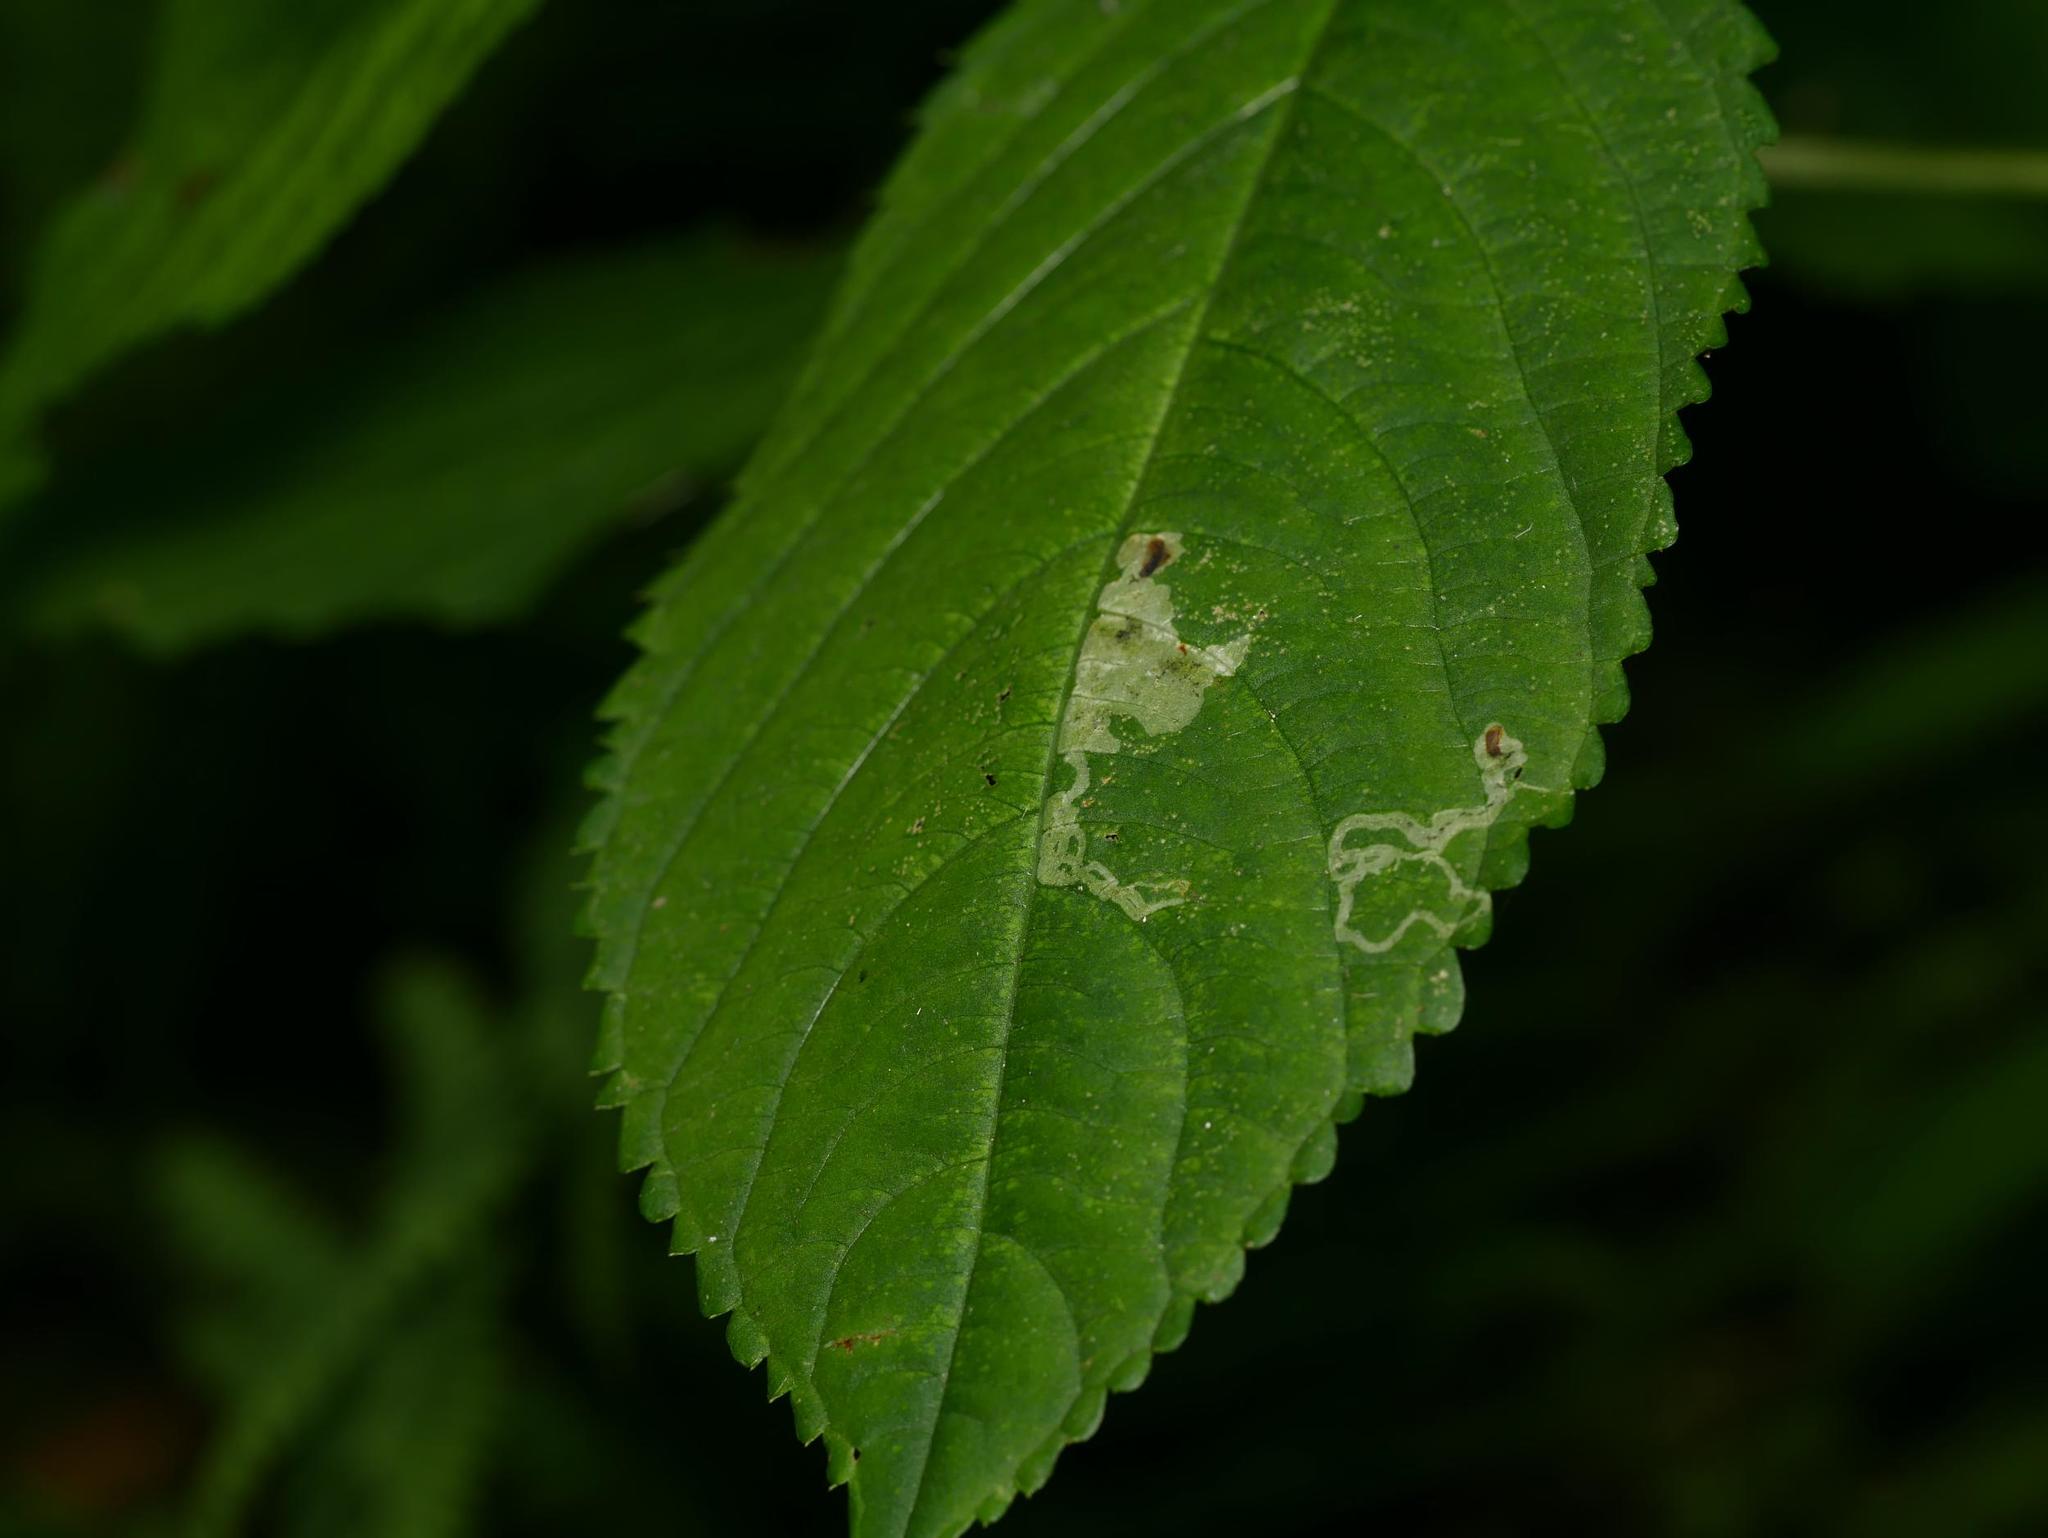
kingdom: Animalia
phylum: Arthropoda
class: Insecta
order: Diptera
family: Agromyzidae
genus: Phytoliriomyza
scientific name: Phytoliriomyza melampyga
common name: Jewelweed leaf-miner fly
